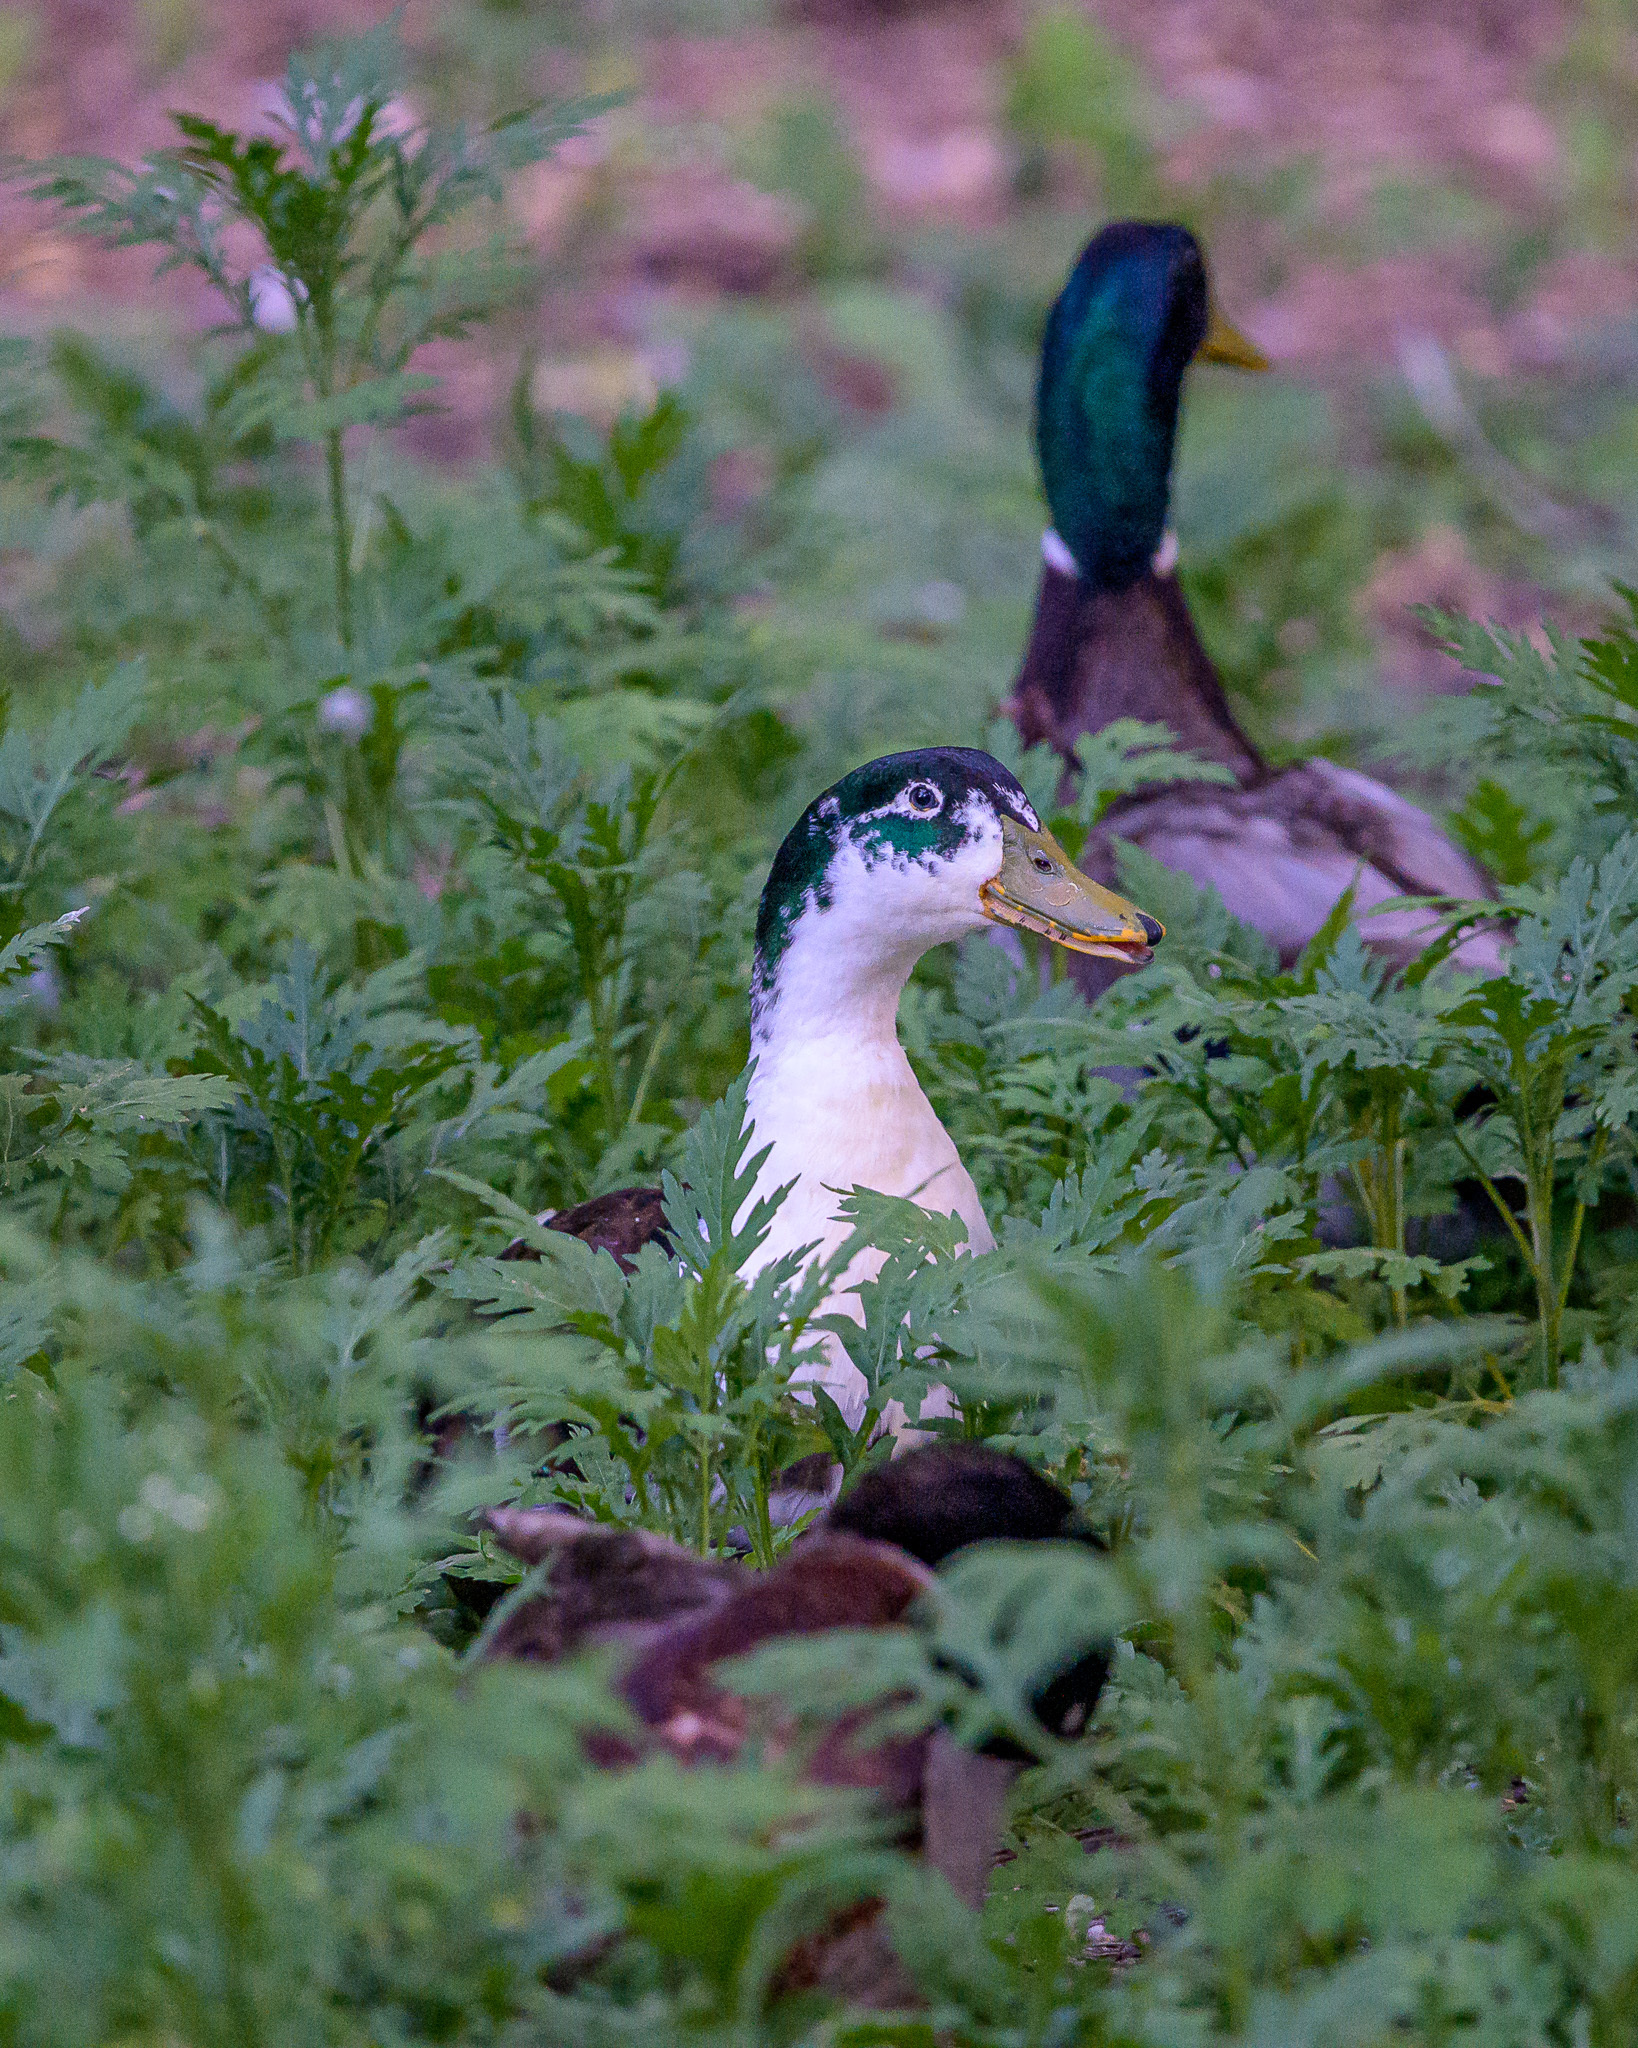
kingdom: Animalia
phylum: Chordata
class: Aves
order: Anseriformes
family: Anatidae
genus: Anas
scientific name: Anas platyrhynchos
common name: Mallard
